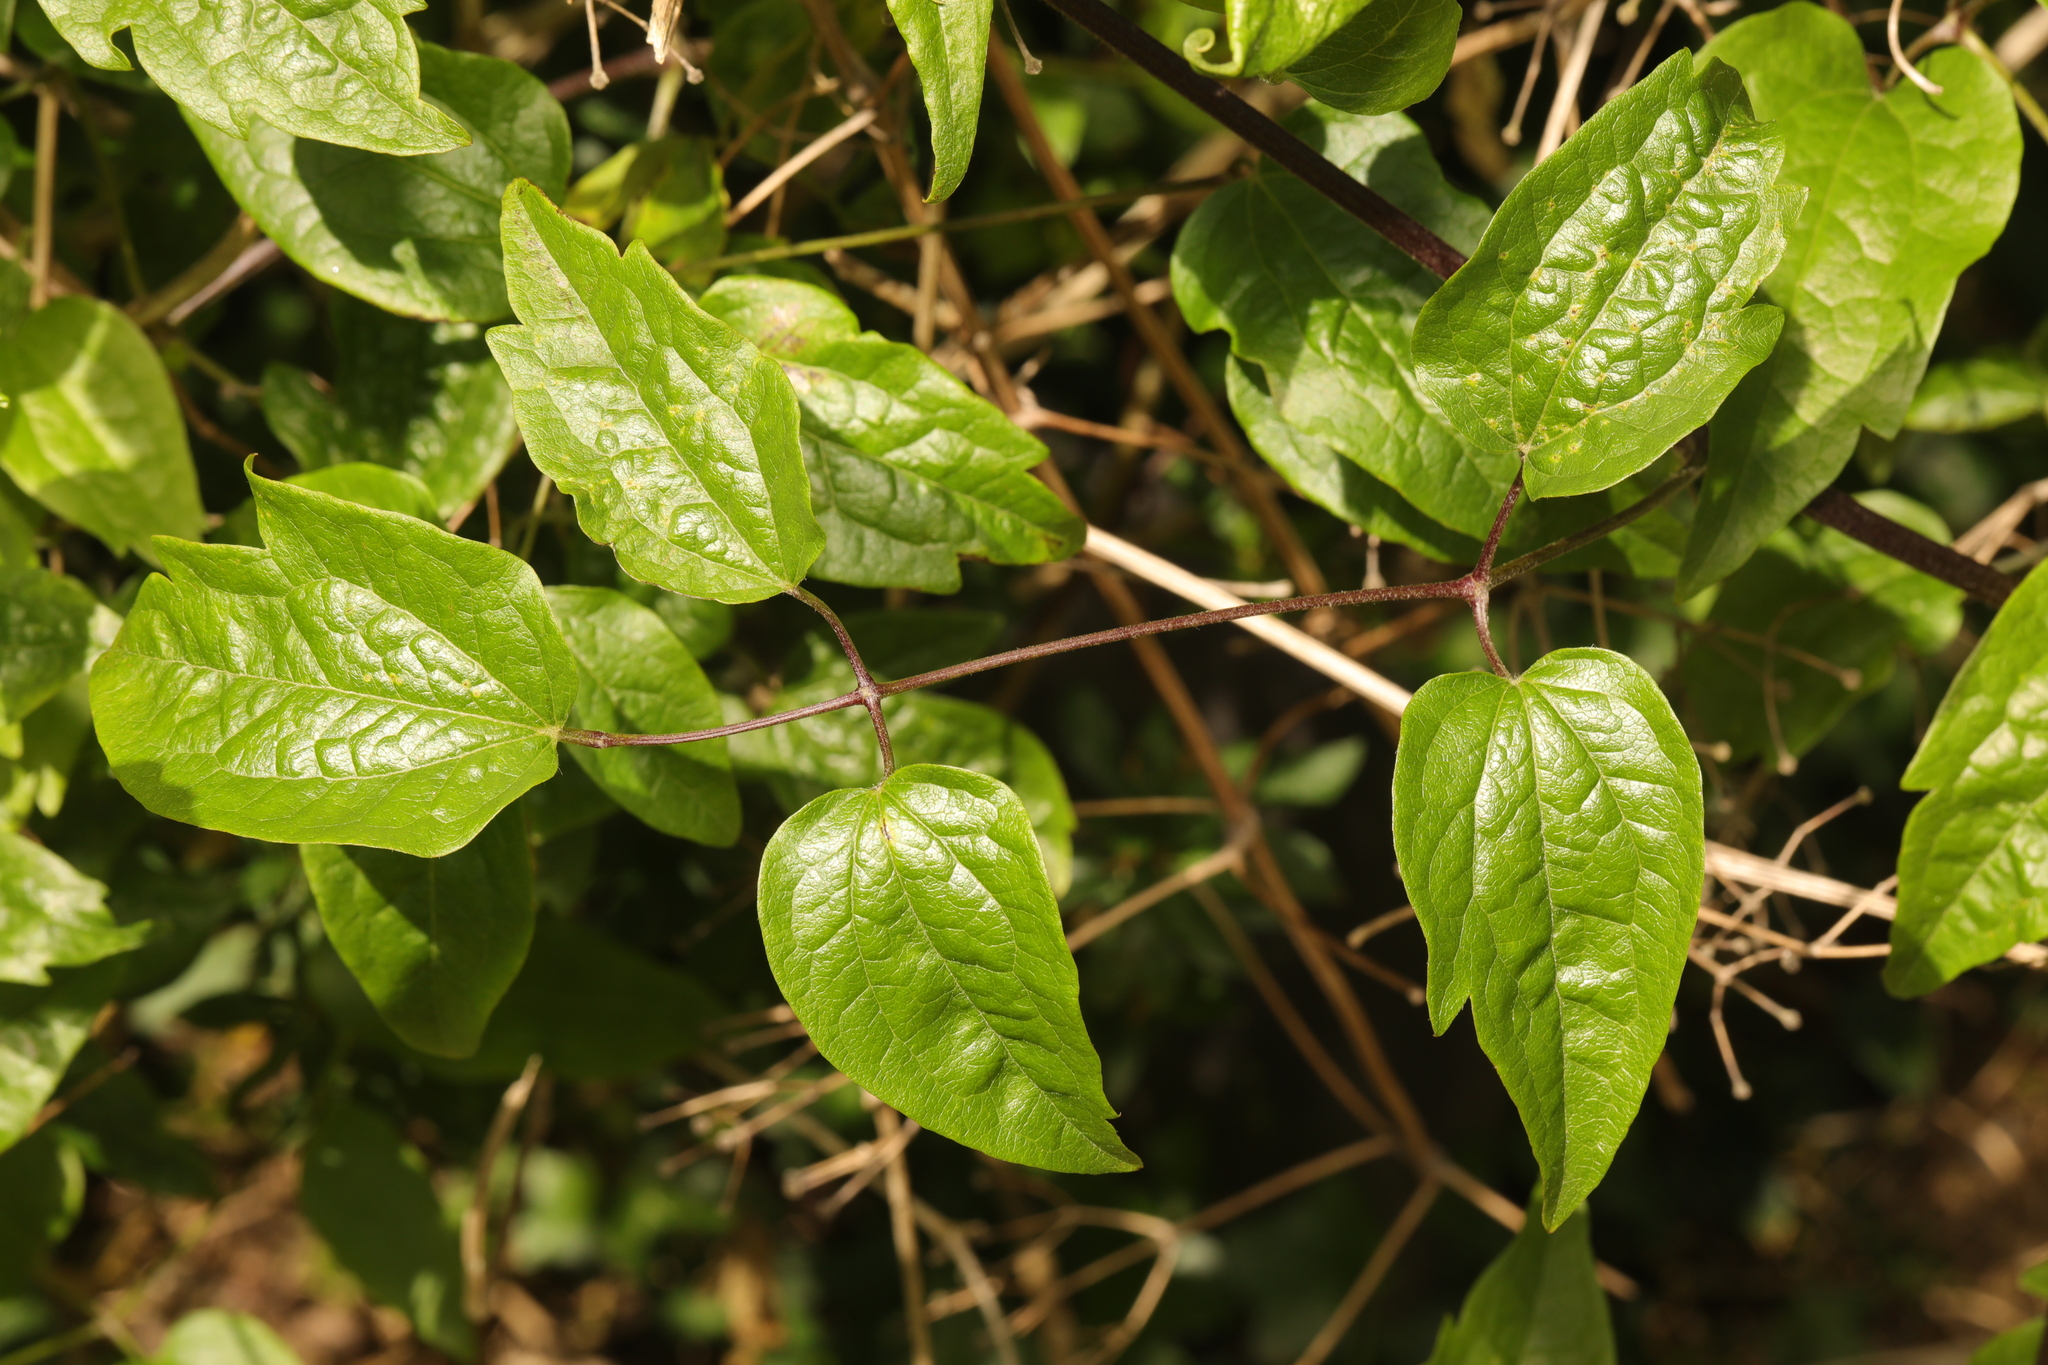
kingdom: Plantae
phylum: Tracheophyta
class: Magnoliopsida
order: Ranunculales
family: Ranunculaceae
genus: Clematis
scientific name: Clematis vitalba
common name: Evergreen clematis
